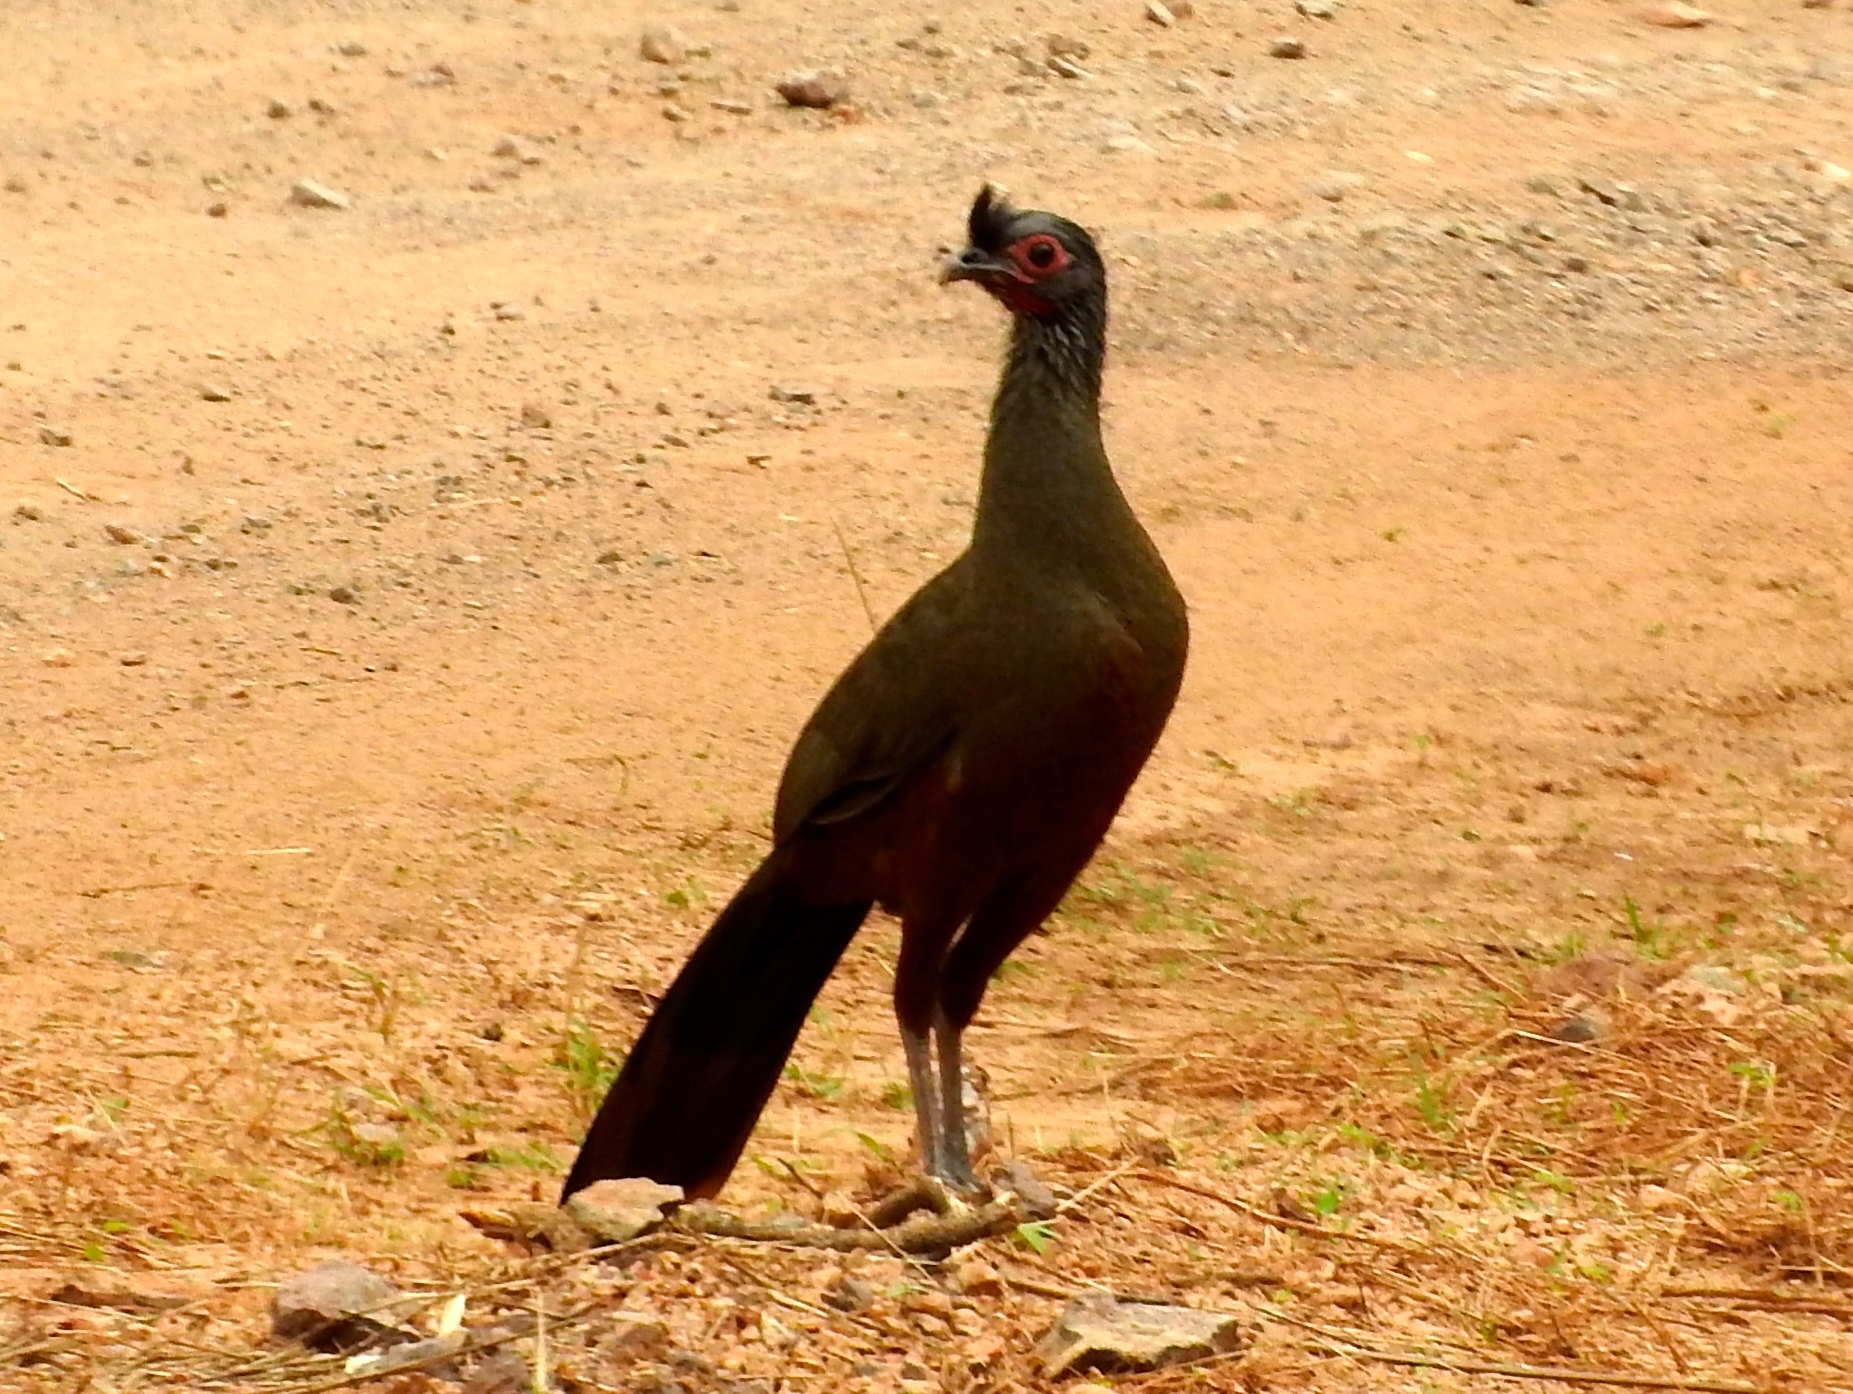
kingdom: Animalia
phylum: Chordata
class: Aves
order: Galliformes
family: Cracidae
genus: Ortalis
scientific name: Ortalis wagleri
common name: Rufous-bellied chachalaca
